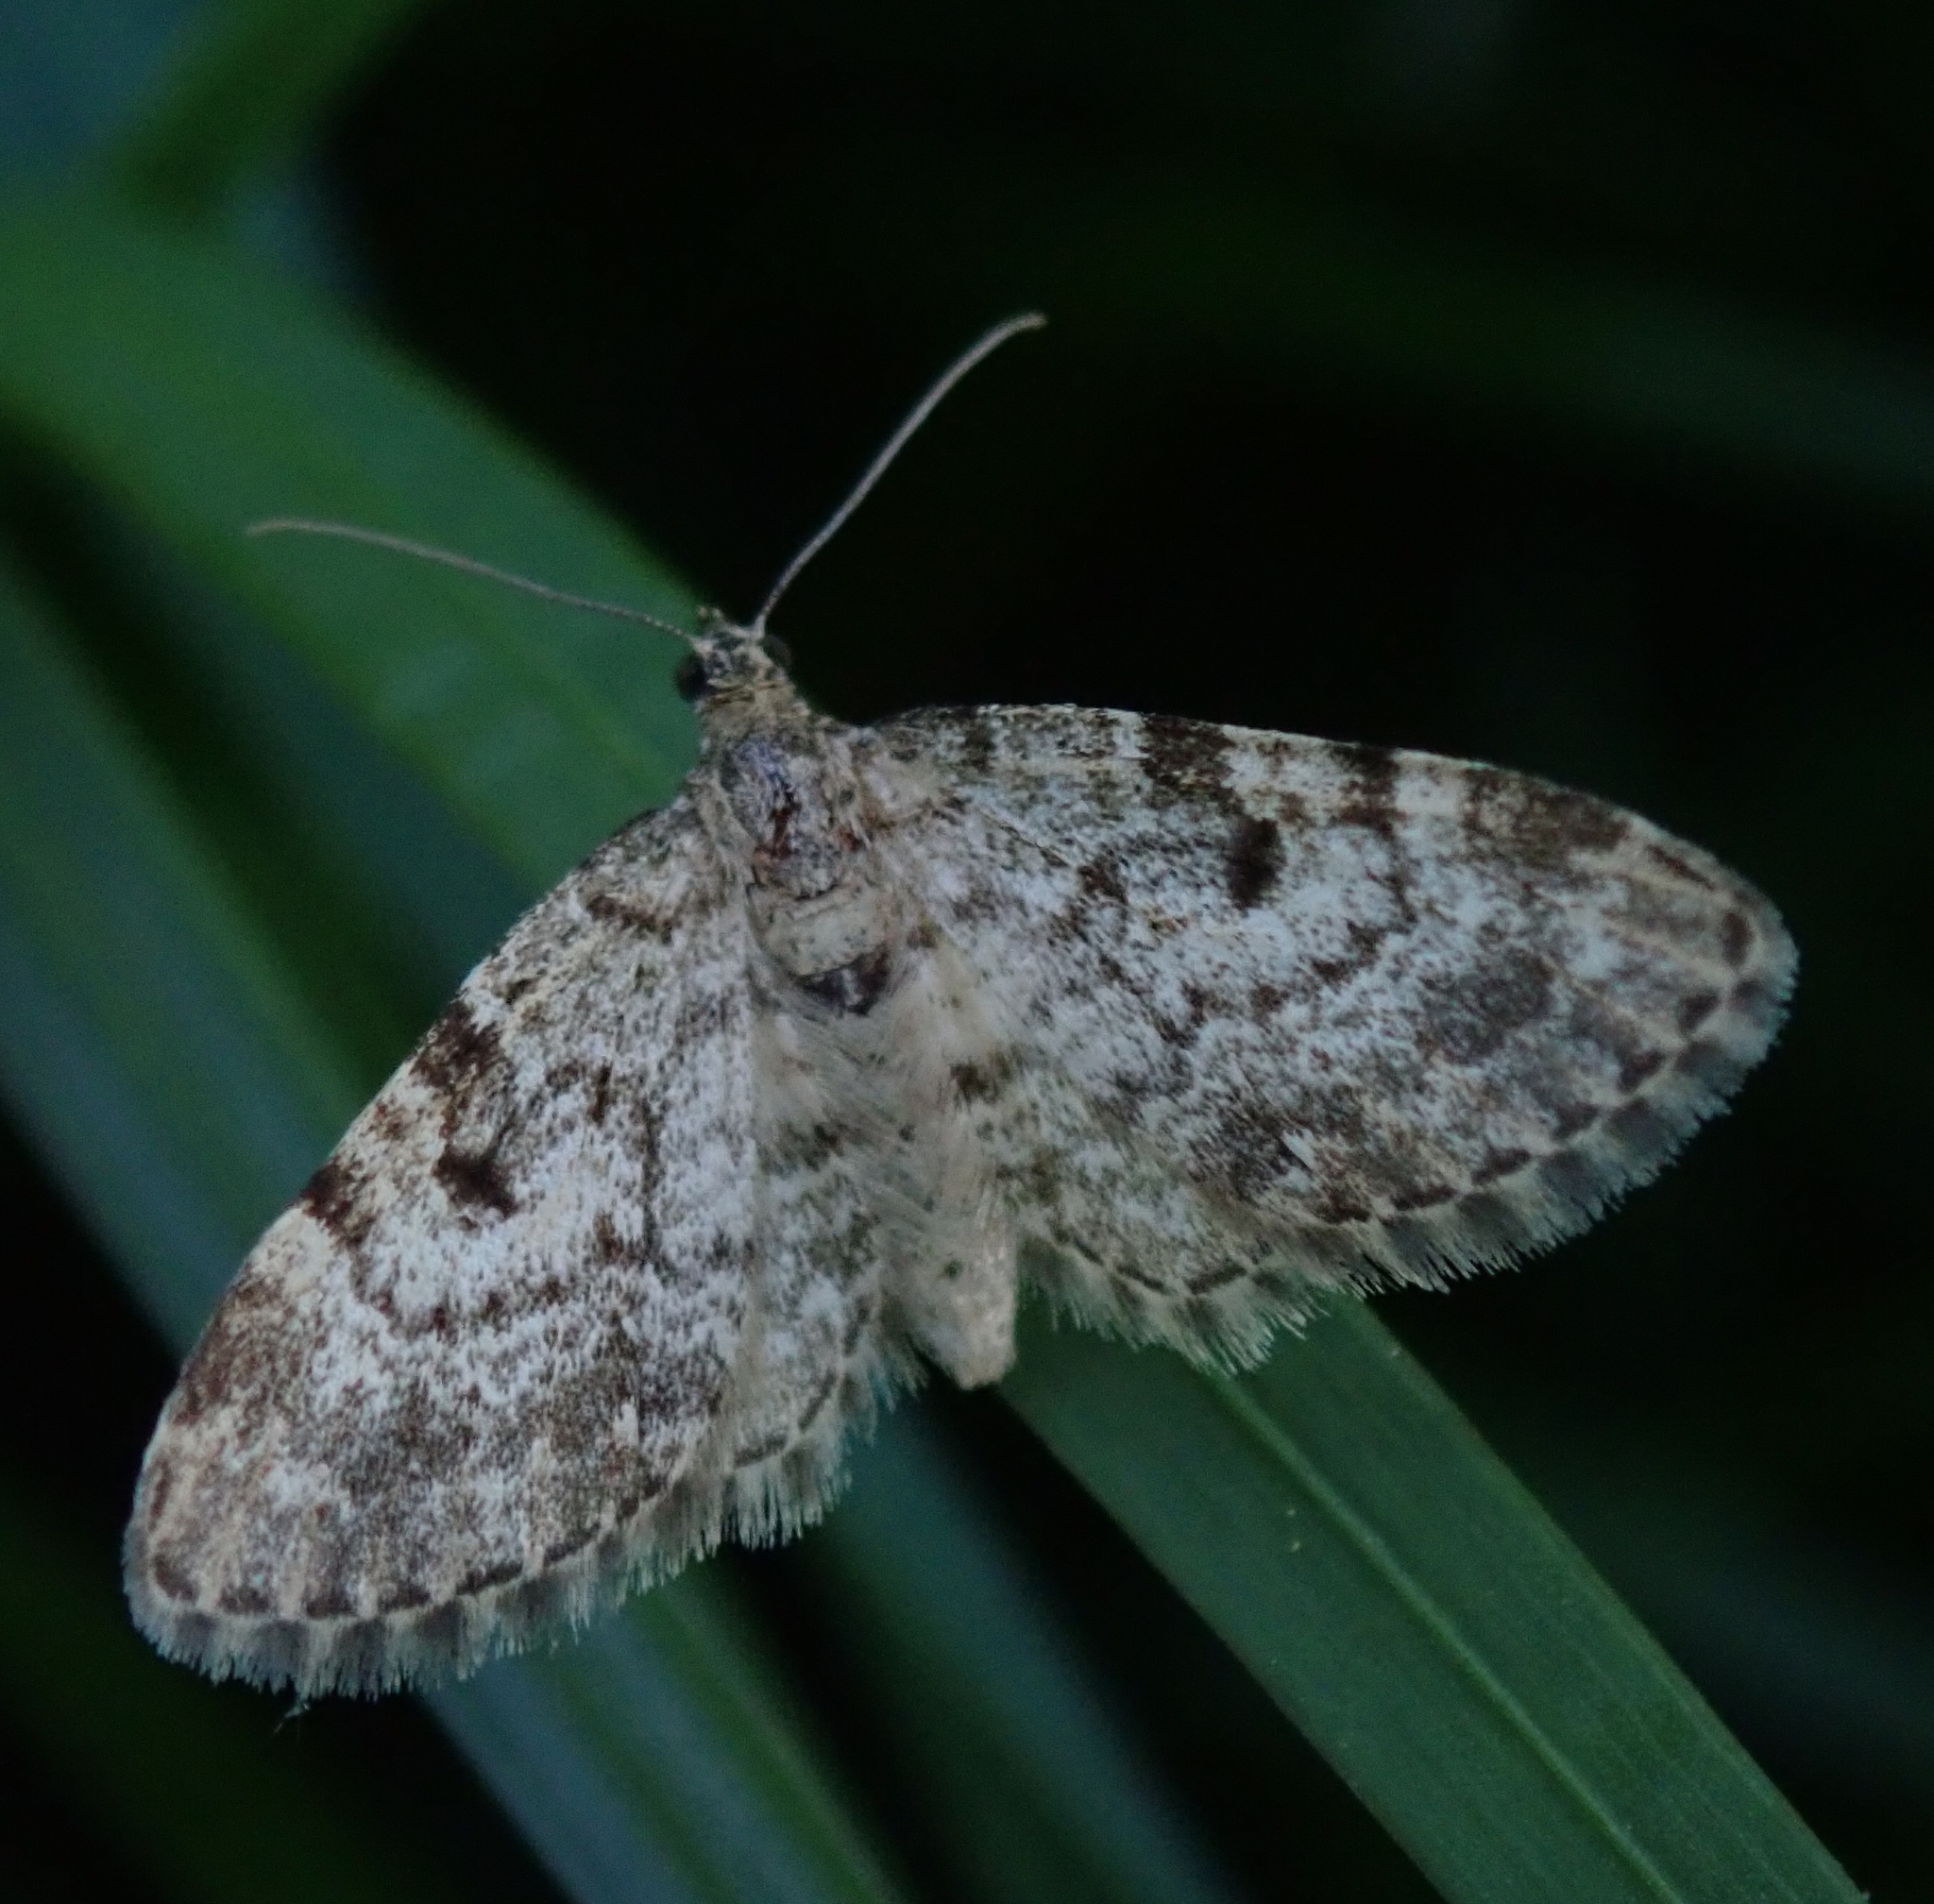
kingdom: Animalia
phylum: Arthropoda
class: Insecta
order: Lepidoptera
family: Geometridae
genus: Eupithecia
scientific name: Eupithecia tantillaria
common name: Dwarf pug
